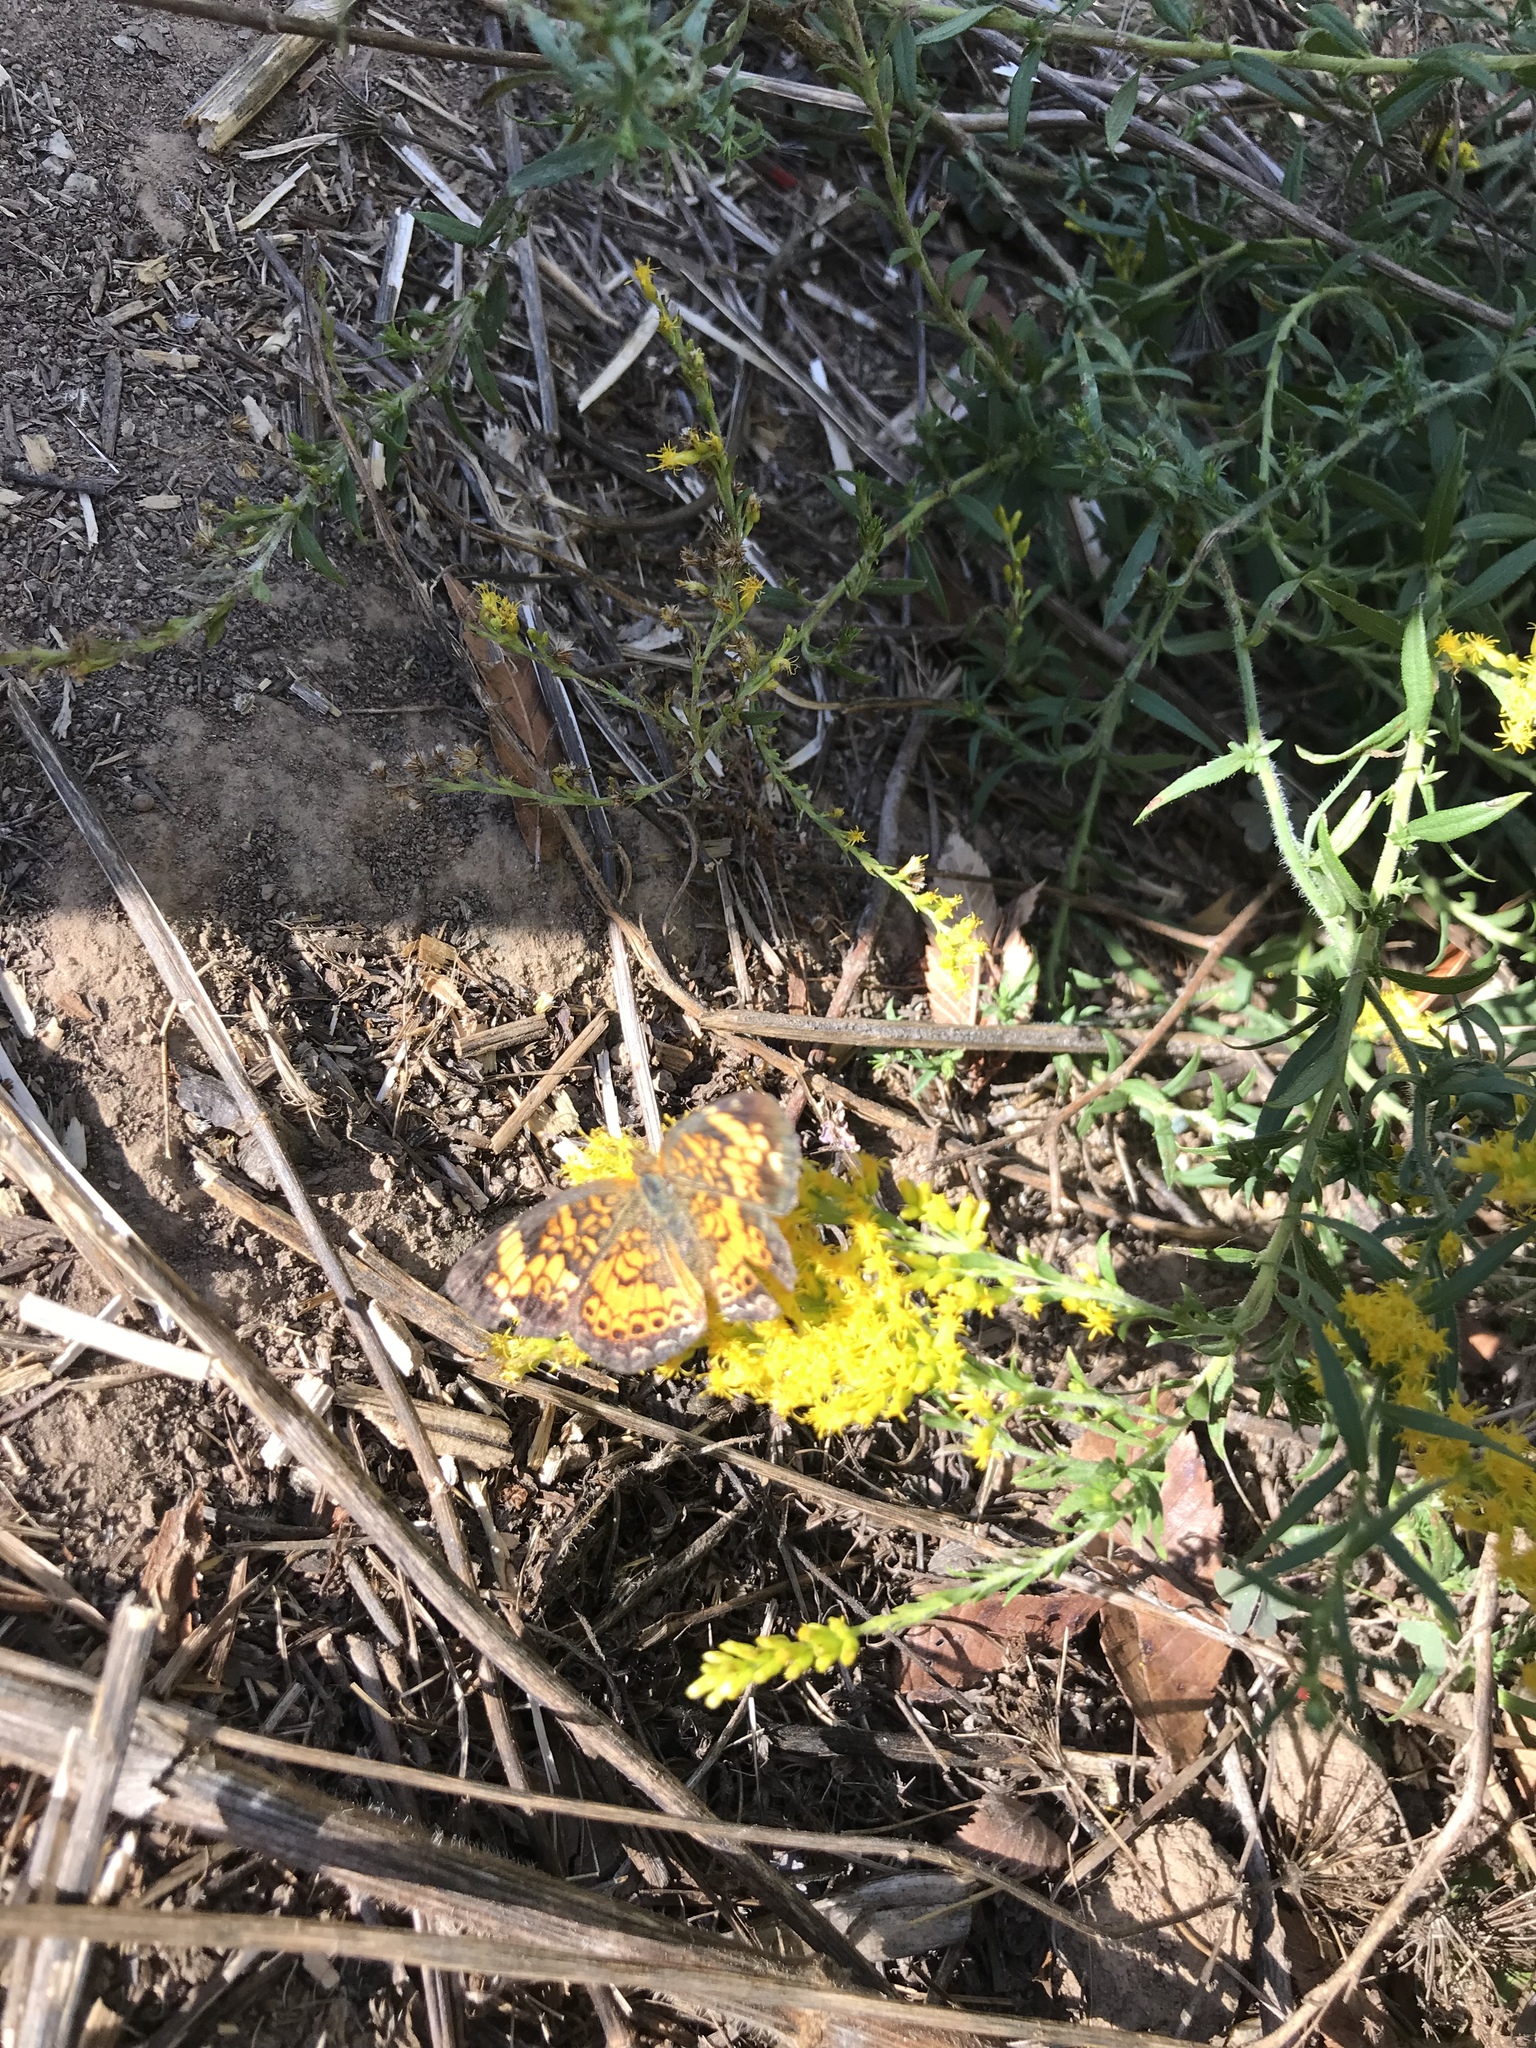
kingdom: Animalia
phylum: Arthropoda
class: Insecta
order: Lepidoptera
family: Nymphalidae
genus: Phyciodes
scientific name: Phyciodes tharos
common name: Pearl crescent
